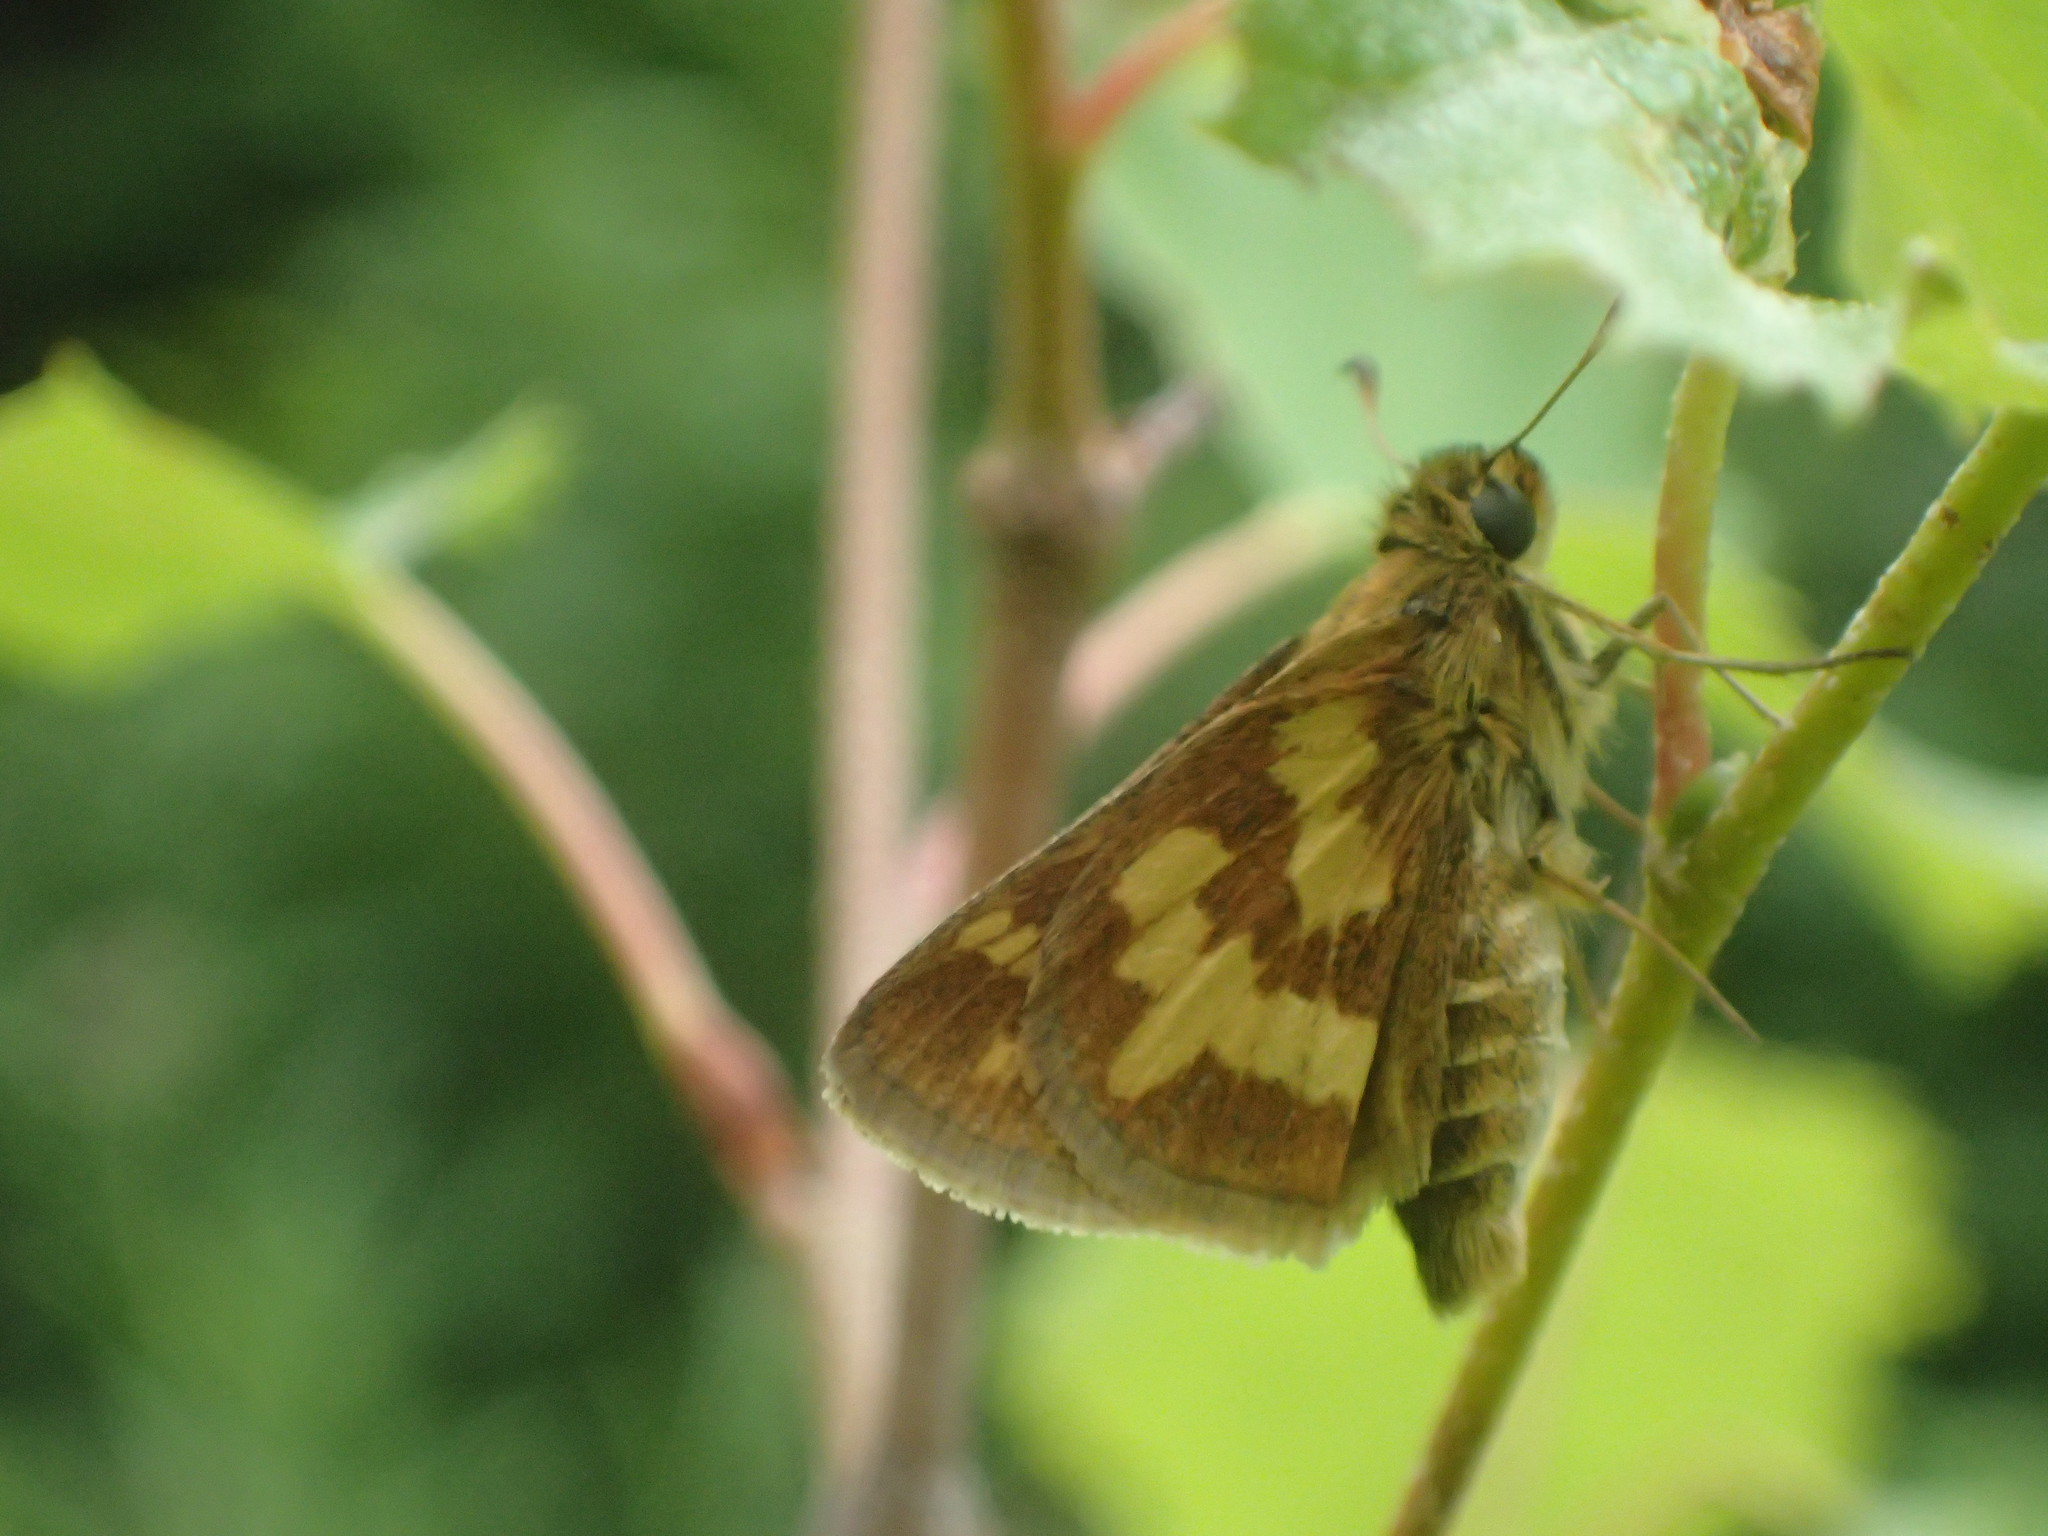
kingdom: Animalia
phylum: Arthropoda
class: Insecta
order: Lepidoptera
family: Hesperiidae
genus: Polites
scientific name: Polites coras
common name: Peck's skipper
